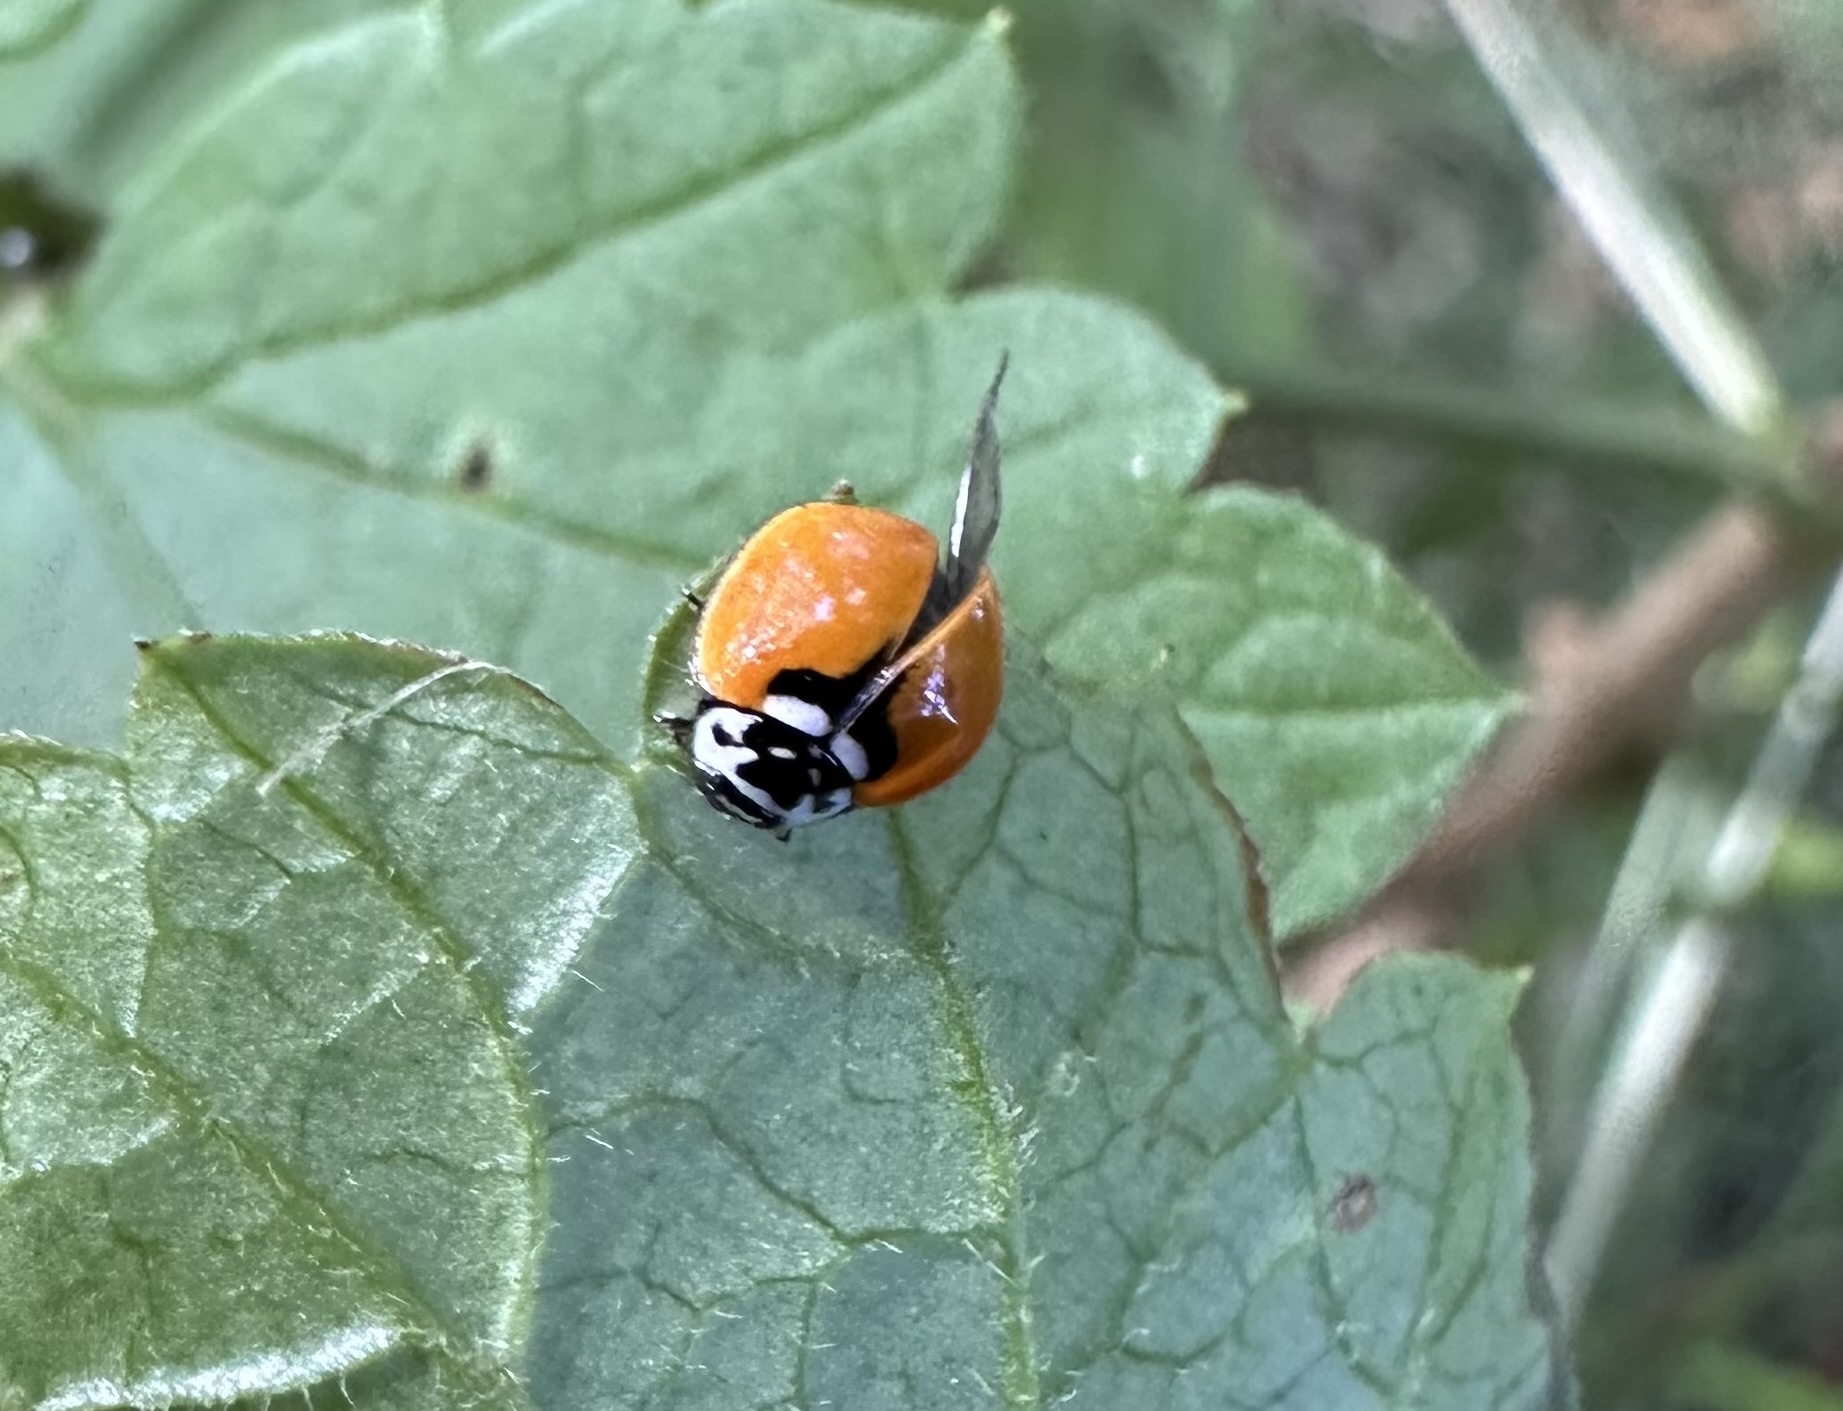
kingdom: Animalia
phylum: Arthropoda
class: Insecta
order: Coleoptera
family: Coccinellidae
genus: Adalia
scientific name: Adalia deficiens
